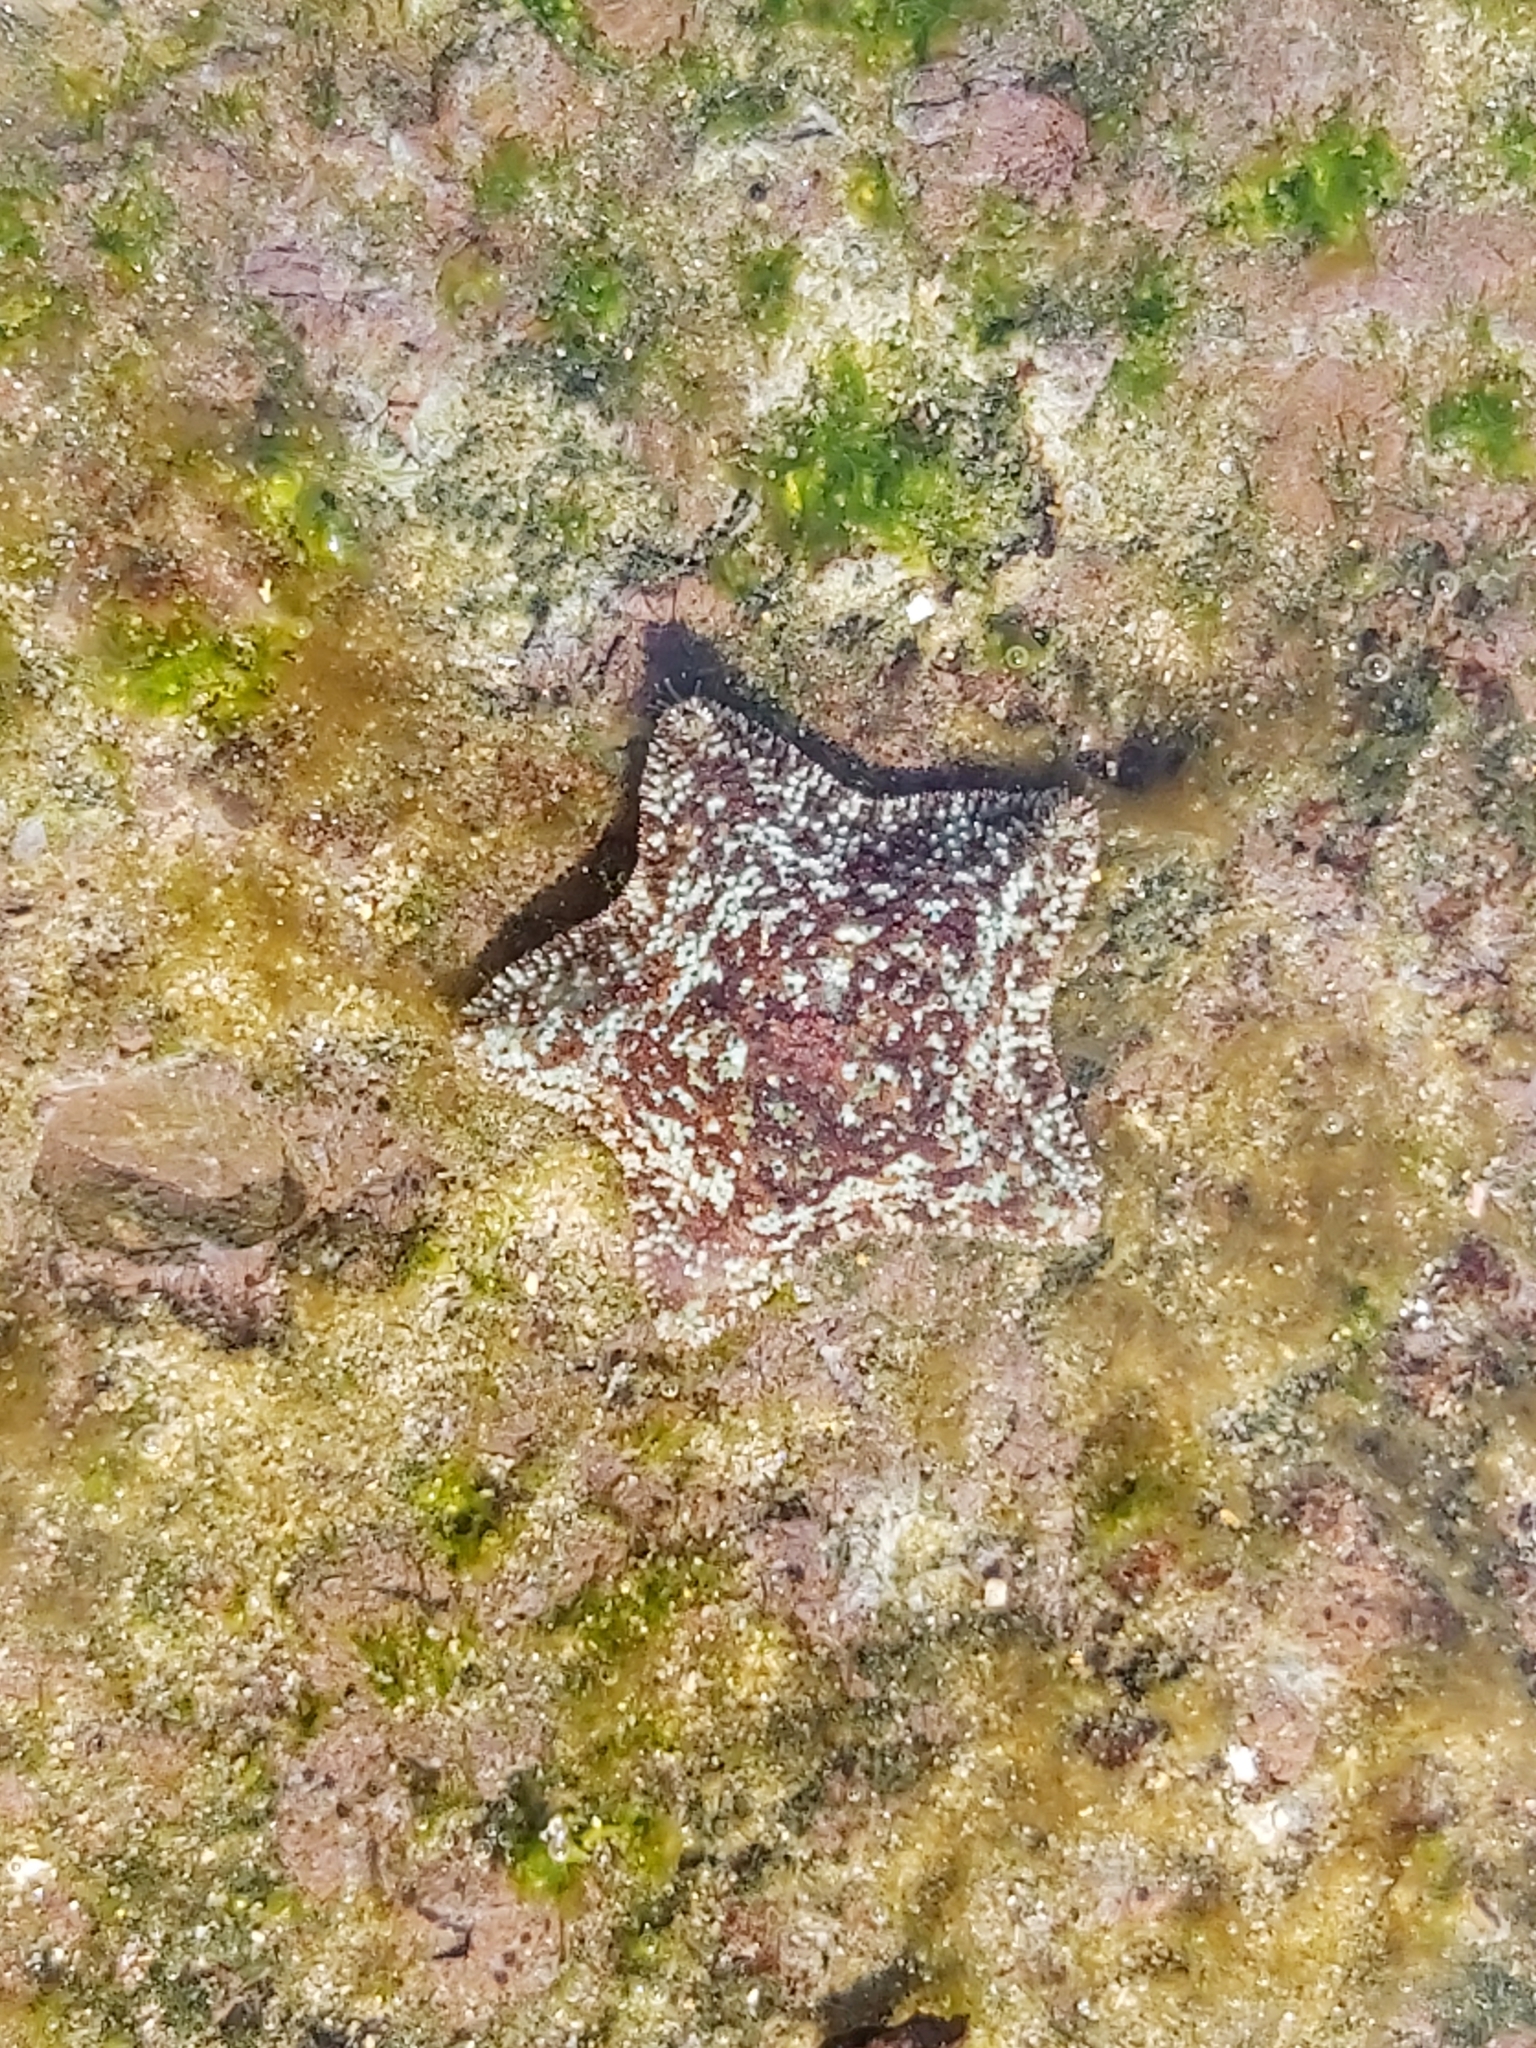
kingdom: Animalia
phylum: Echinodermata
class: Asteroidea
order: Valvatida
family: Asterinidae
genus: Parvulastra
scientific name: Parvulastra exigua
